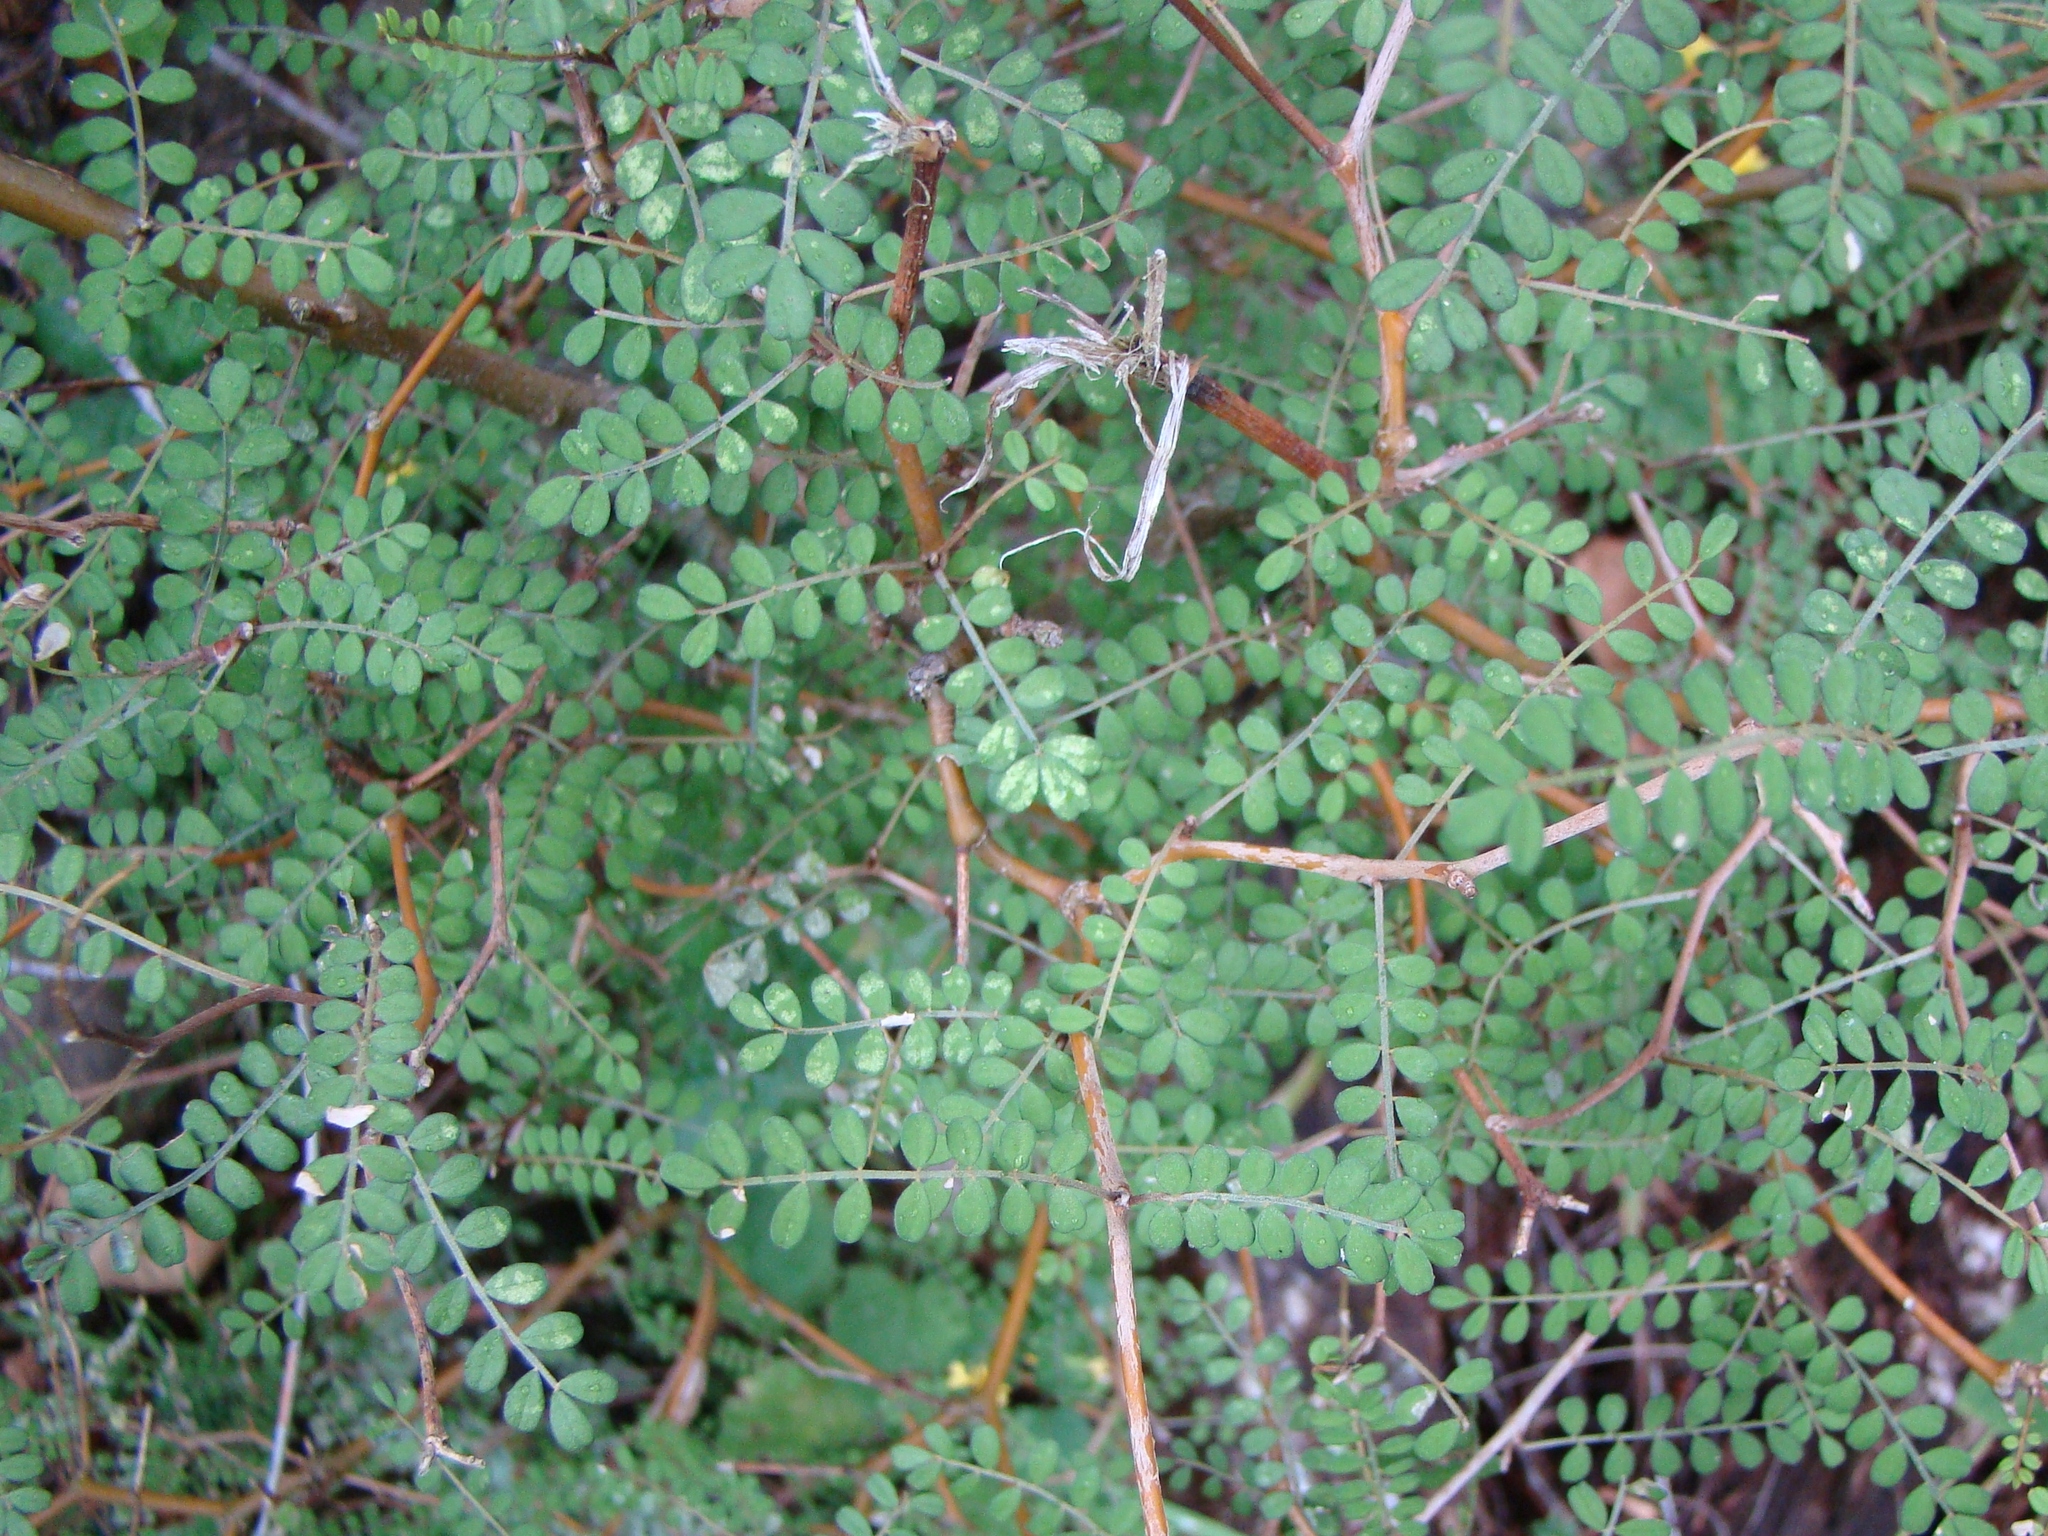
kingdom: Plantae
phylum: Tracheophyta
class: Magnoliopsida
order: Fabales
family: Fabaceae
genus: Sophora
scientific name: Sophora microphylla
